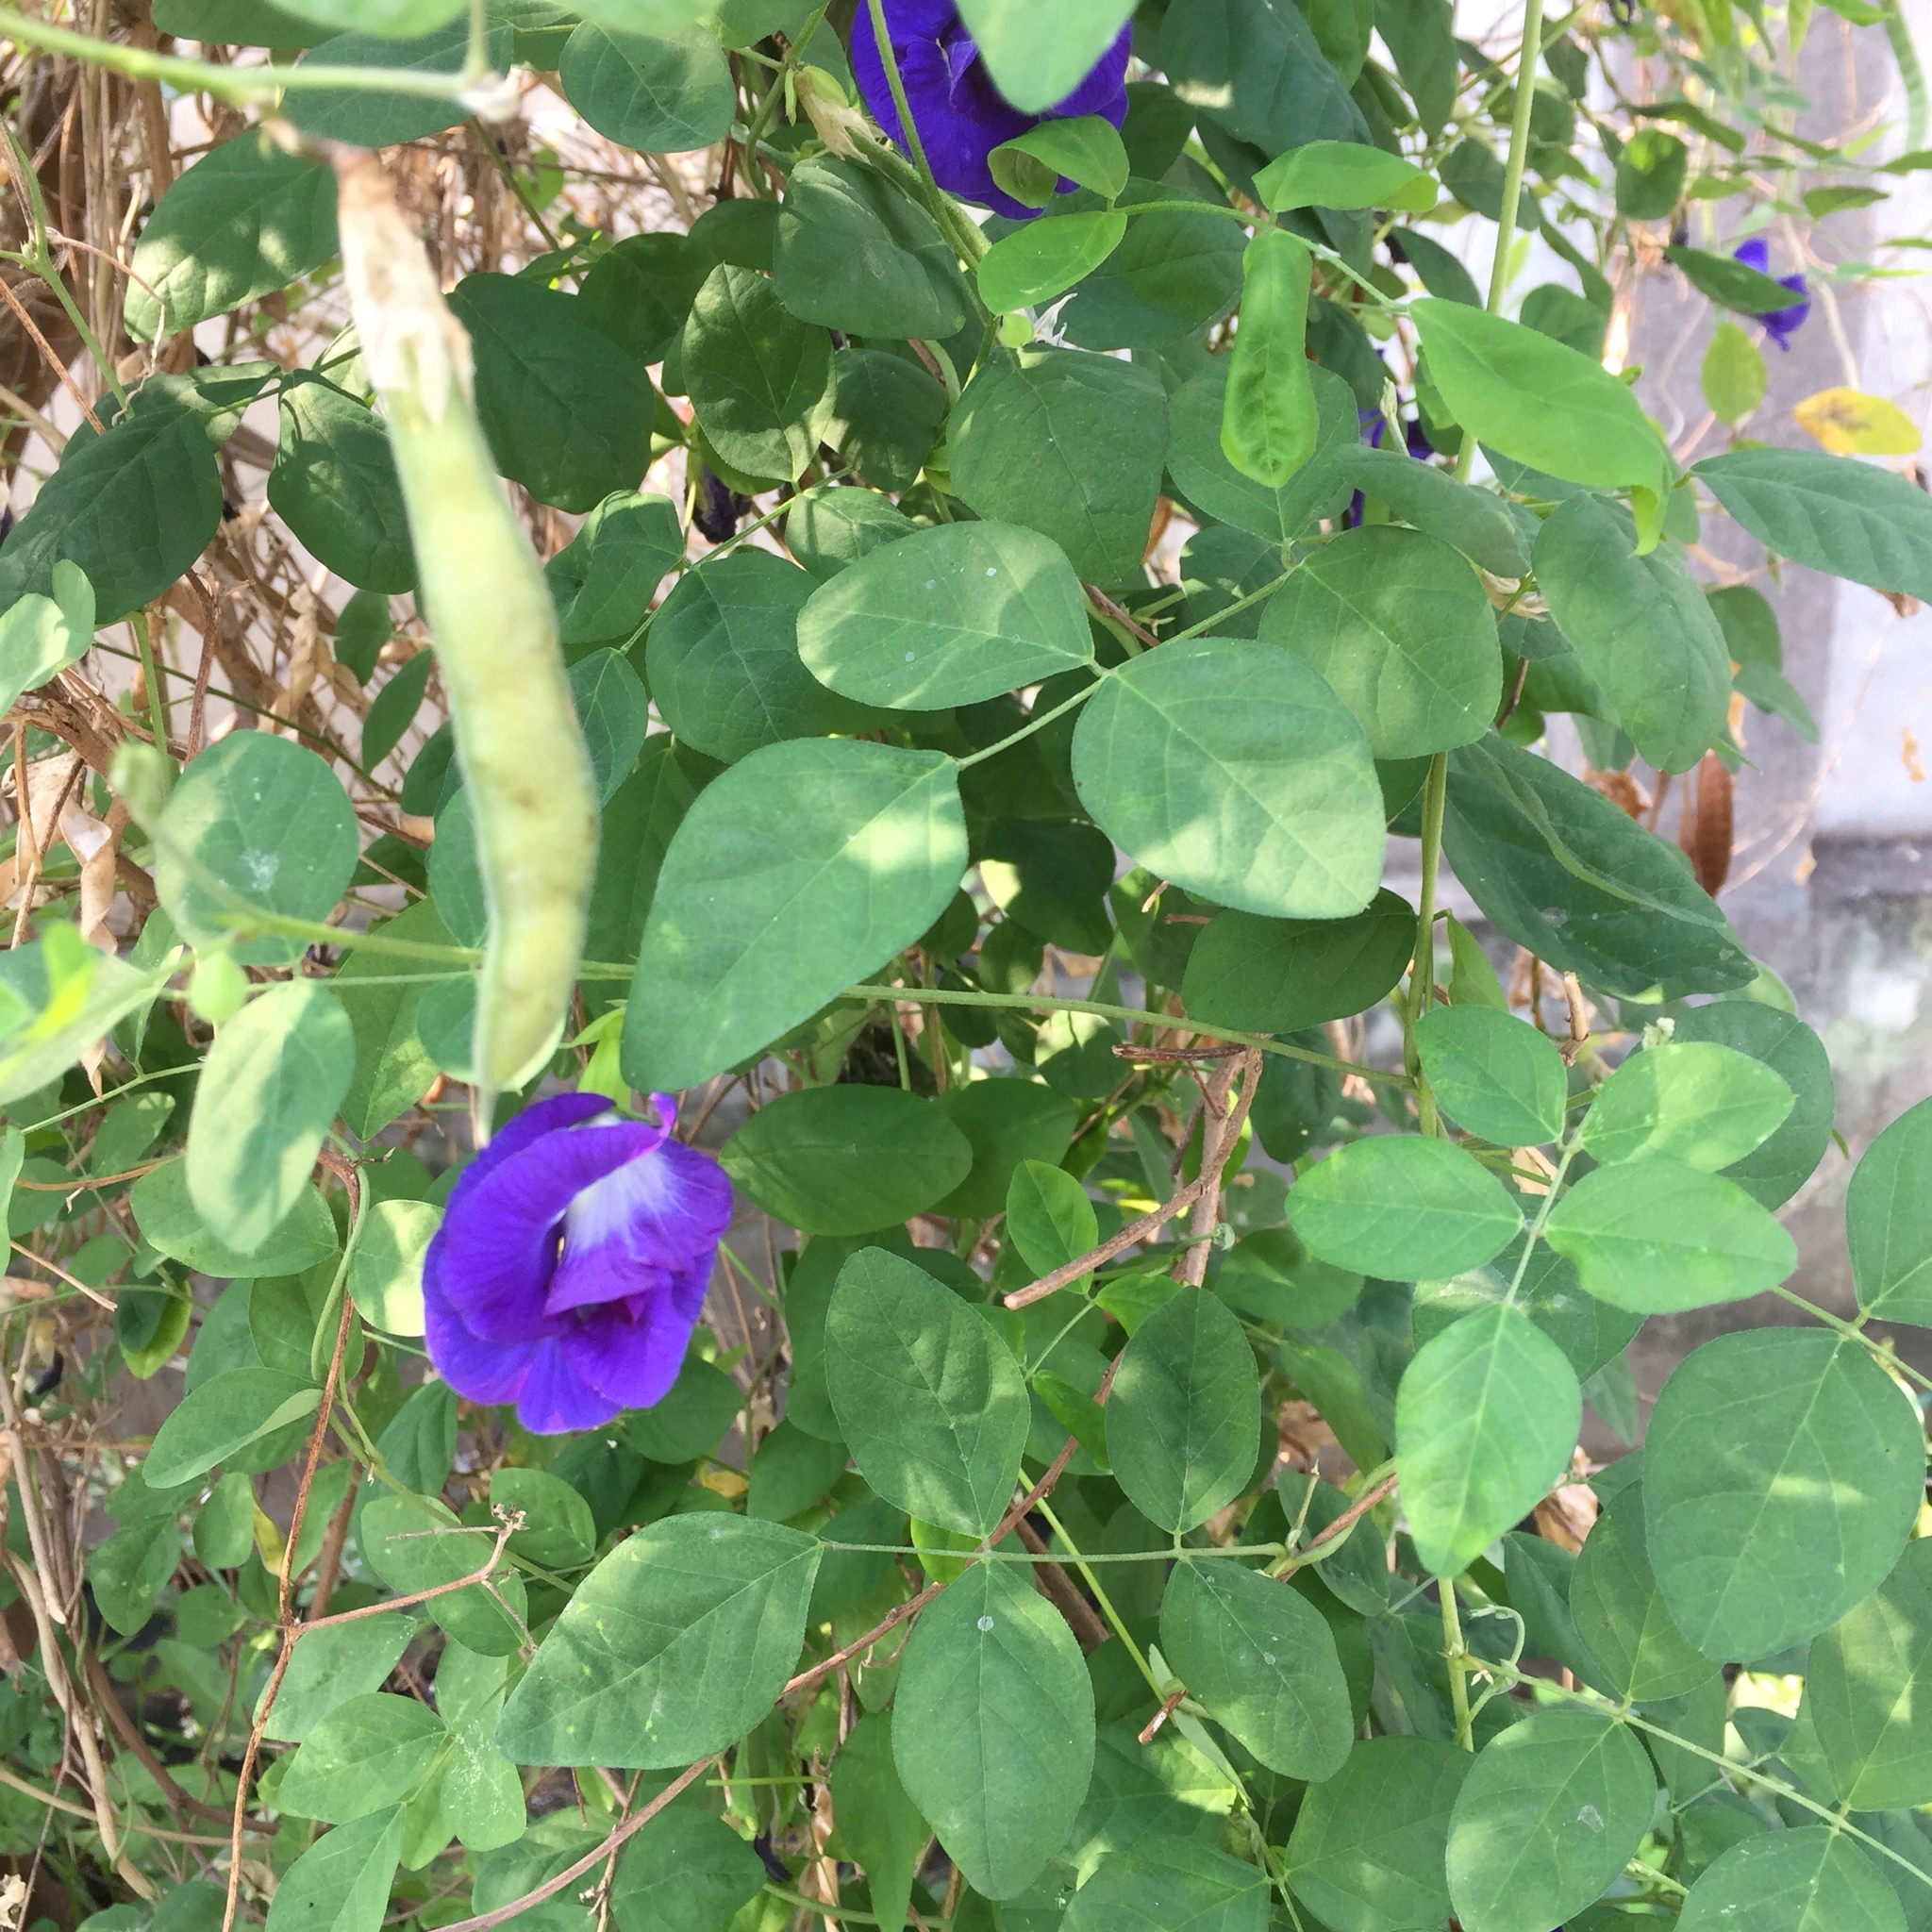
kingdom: Plantae
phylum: Tracheophyta
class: Magnoliopsida
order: Fabales
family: Fabaceae
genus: Clitoria
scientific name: Clitoria ternatea
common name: Asian pigeonwings
